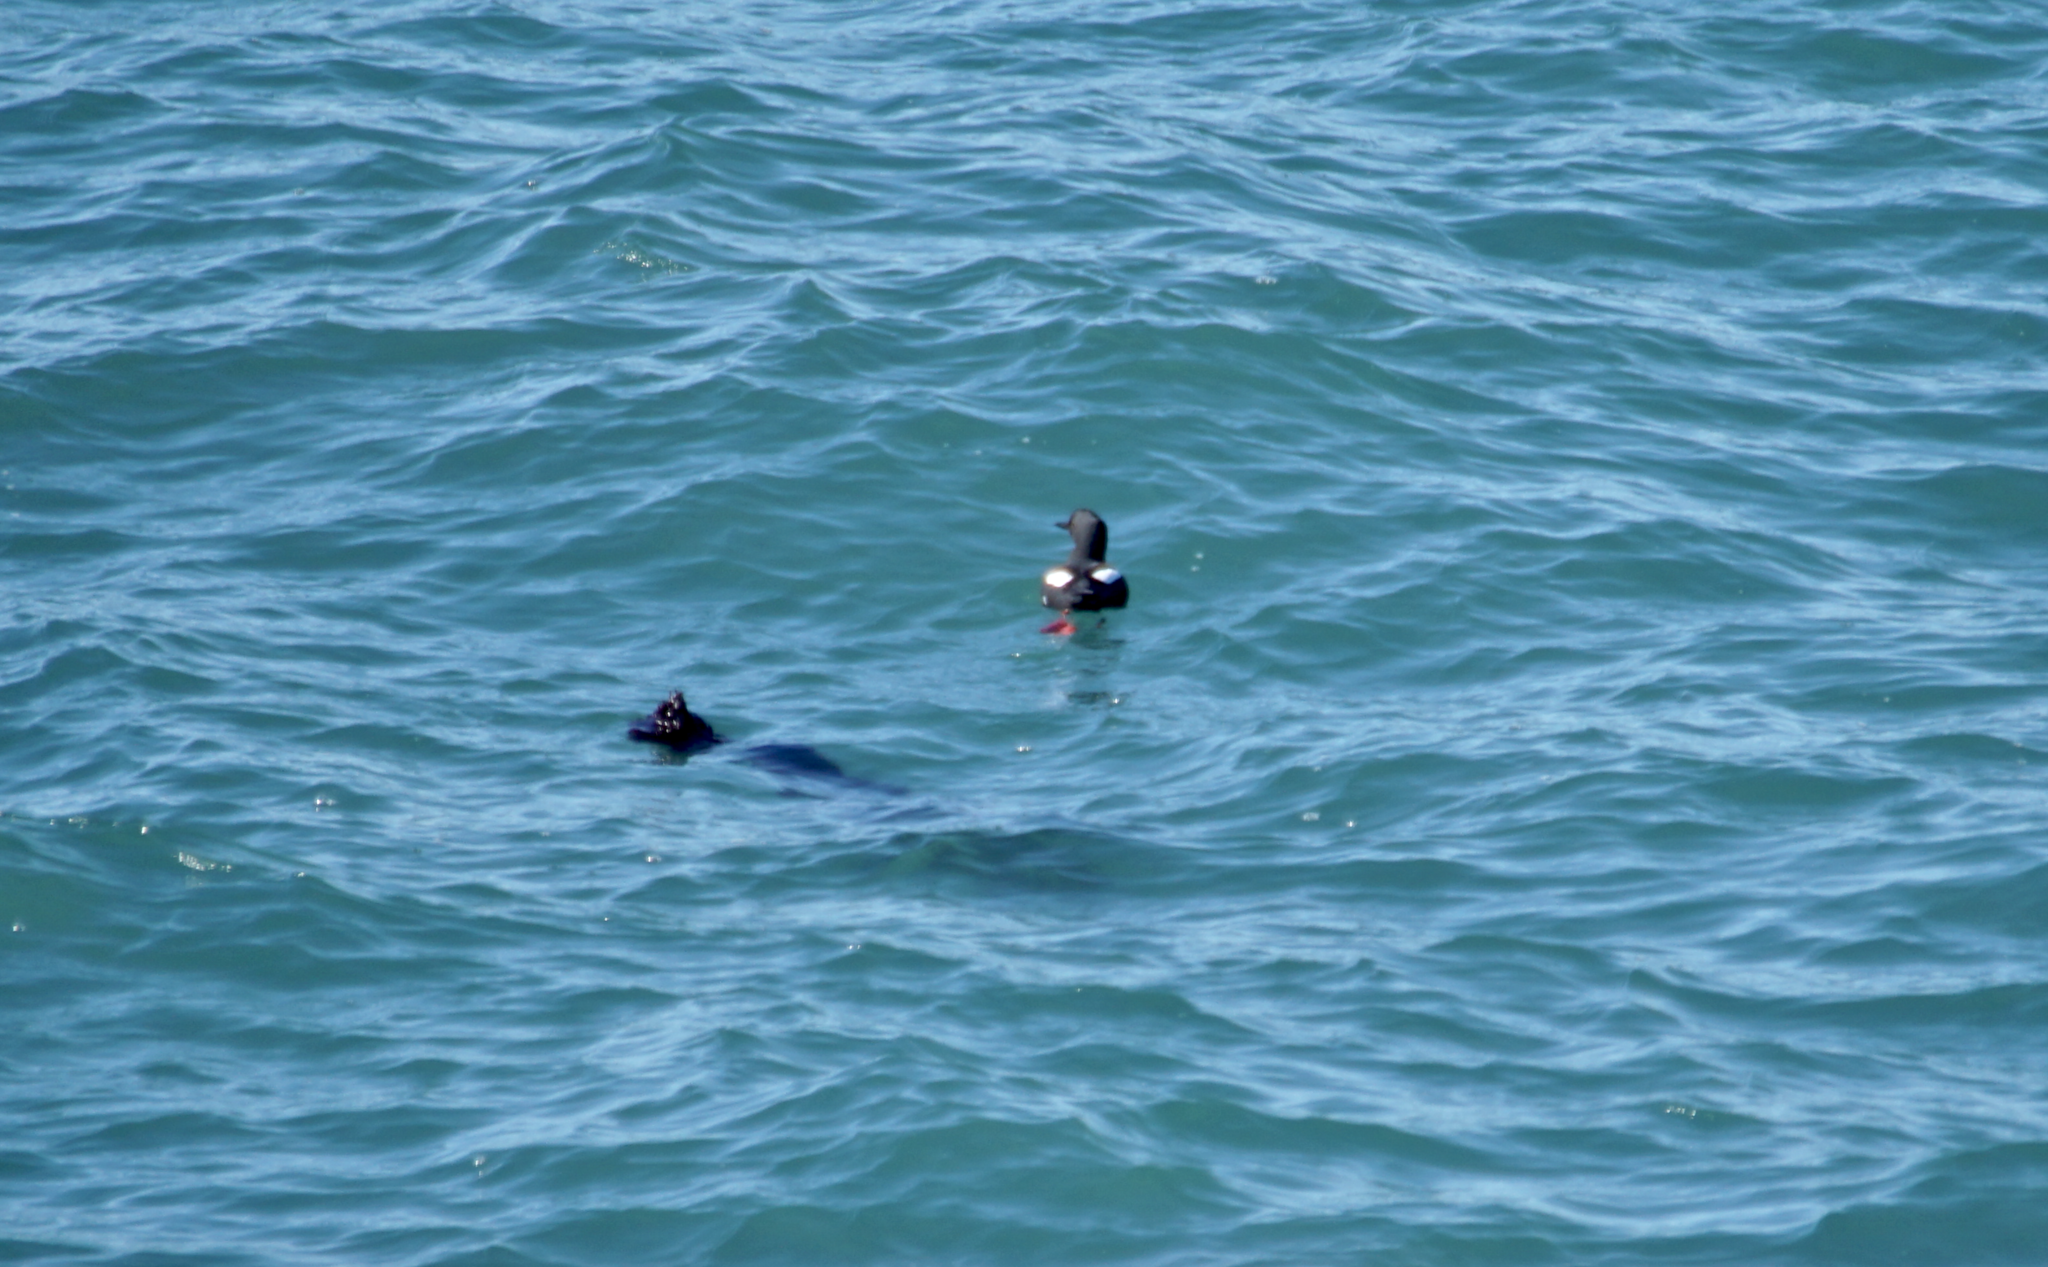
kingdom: Animalia
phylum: Chordata
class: Aves
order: Charadriiformes
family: Alcidae
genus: Cepphus
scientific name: Cepphus columba
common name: Pigeon guillemot
